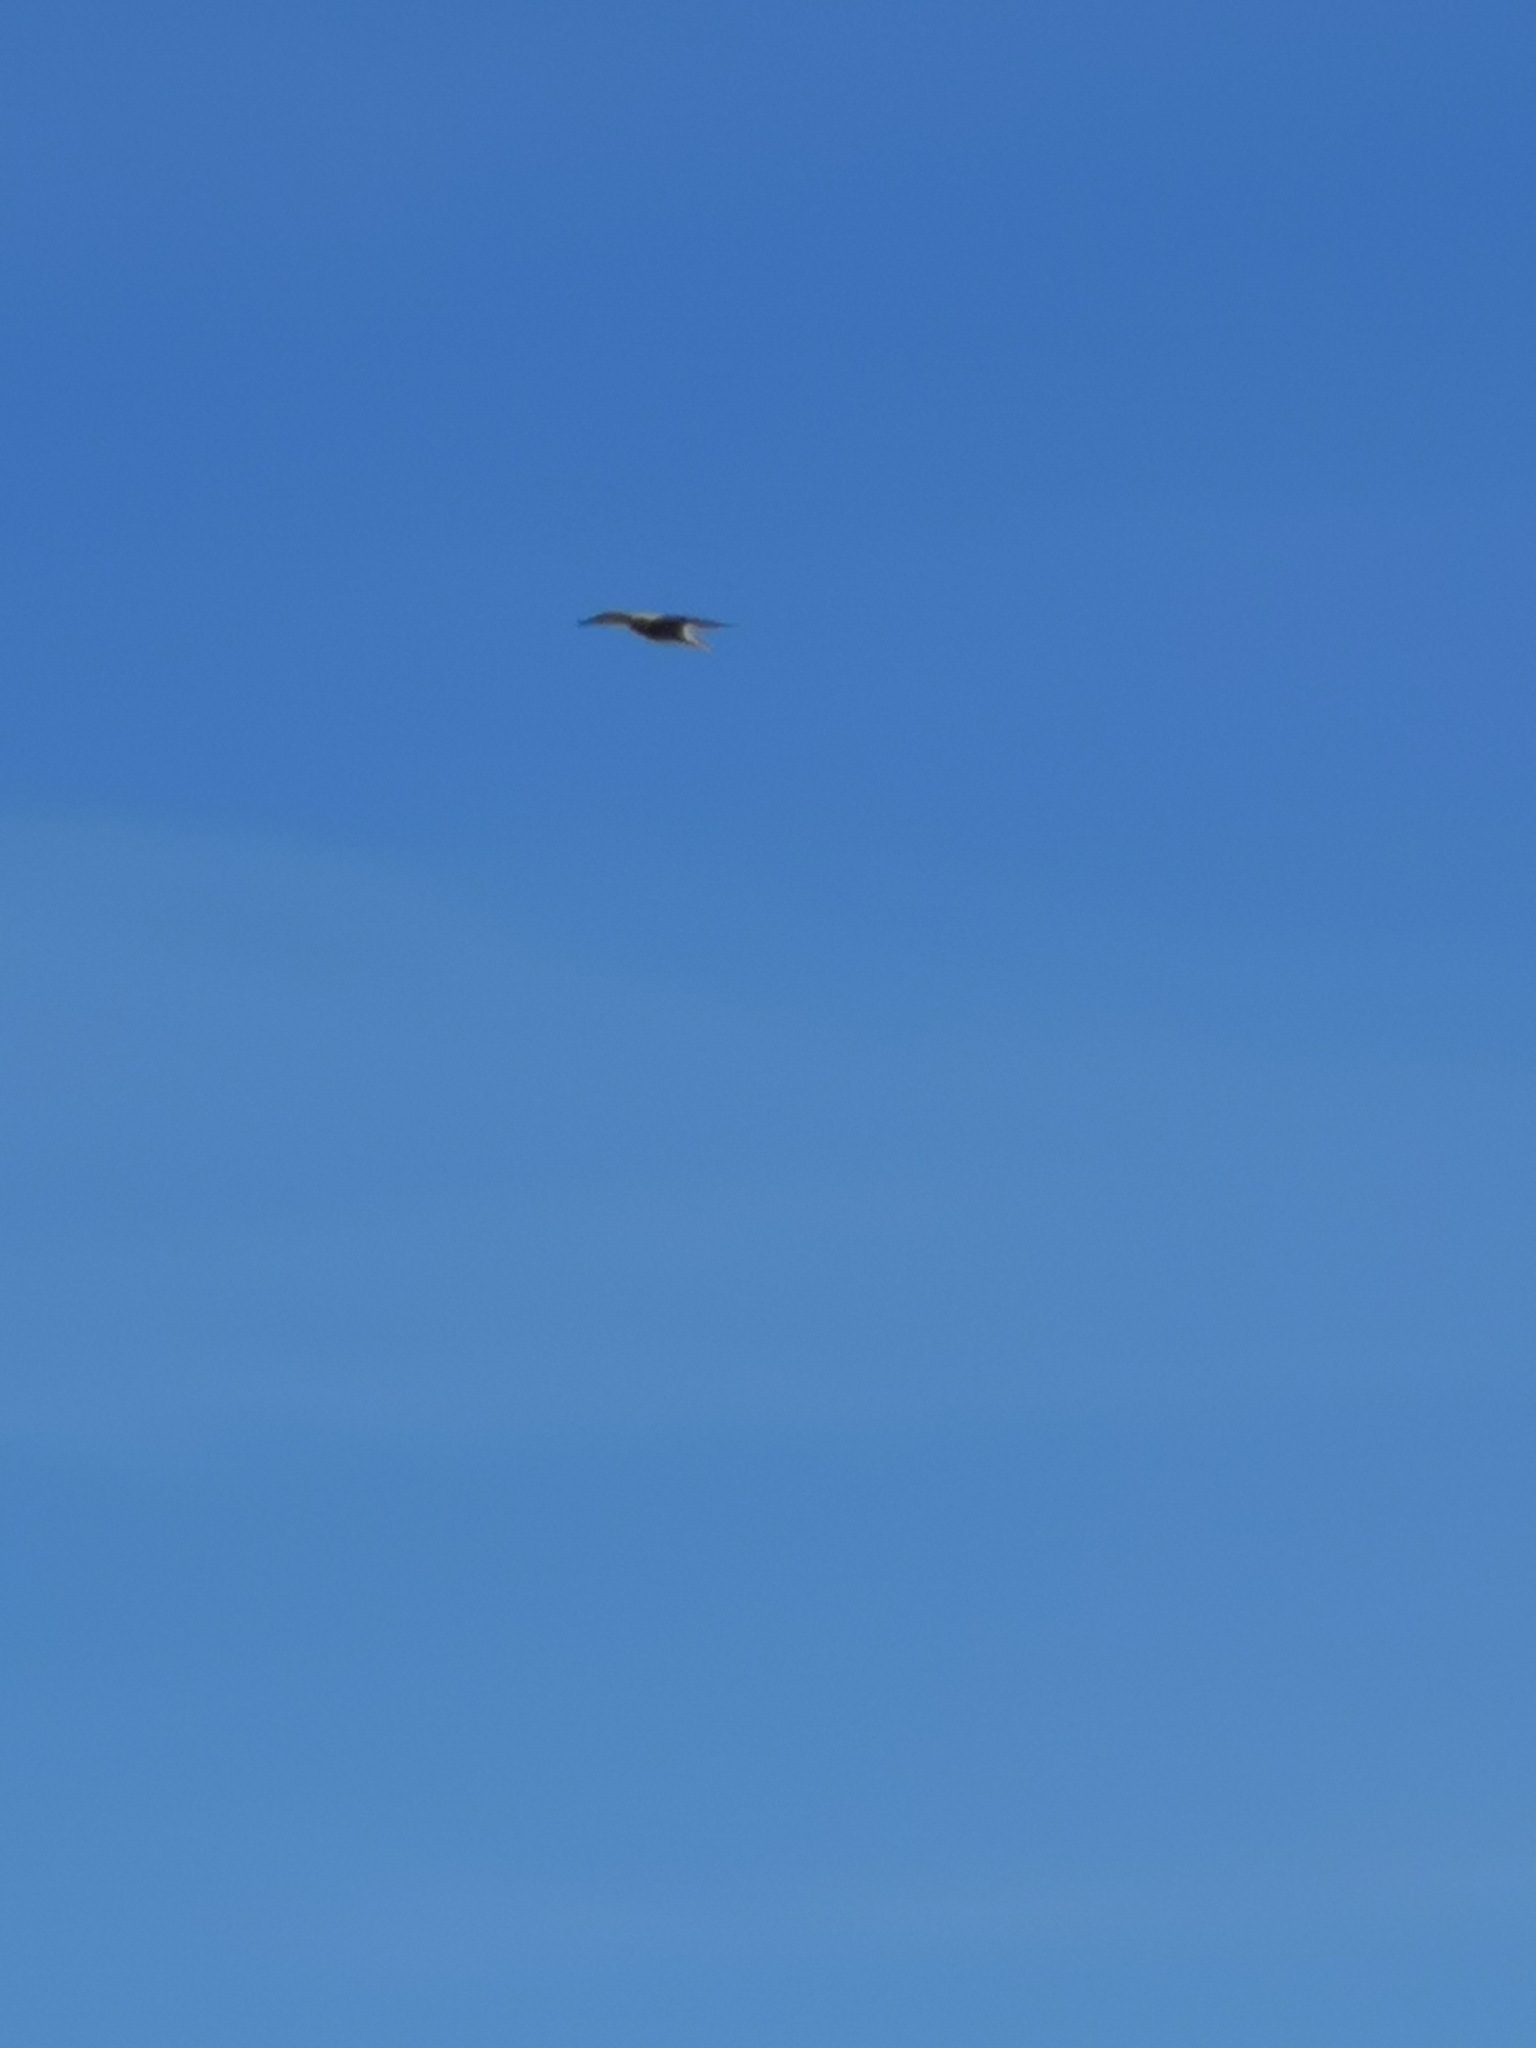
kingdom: Animalia
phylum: Chordata
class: Aves
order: Falconiformes
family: Falconidae
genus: Falco
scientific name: Falco tinnunculus
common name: Common kestrel
